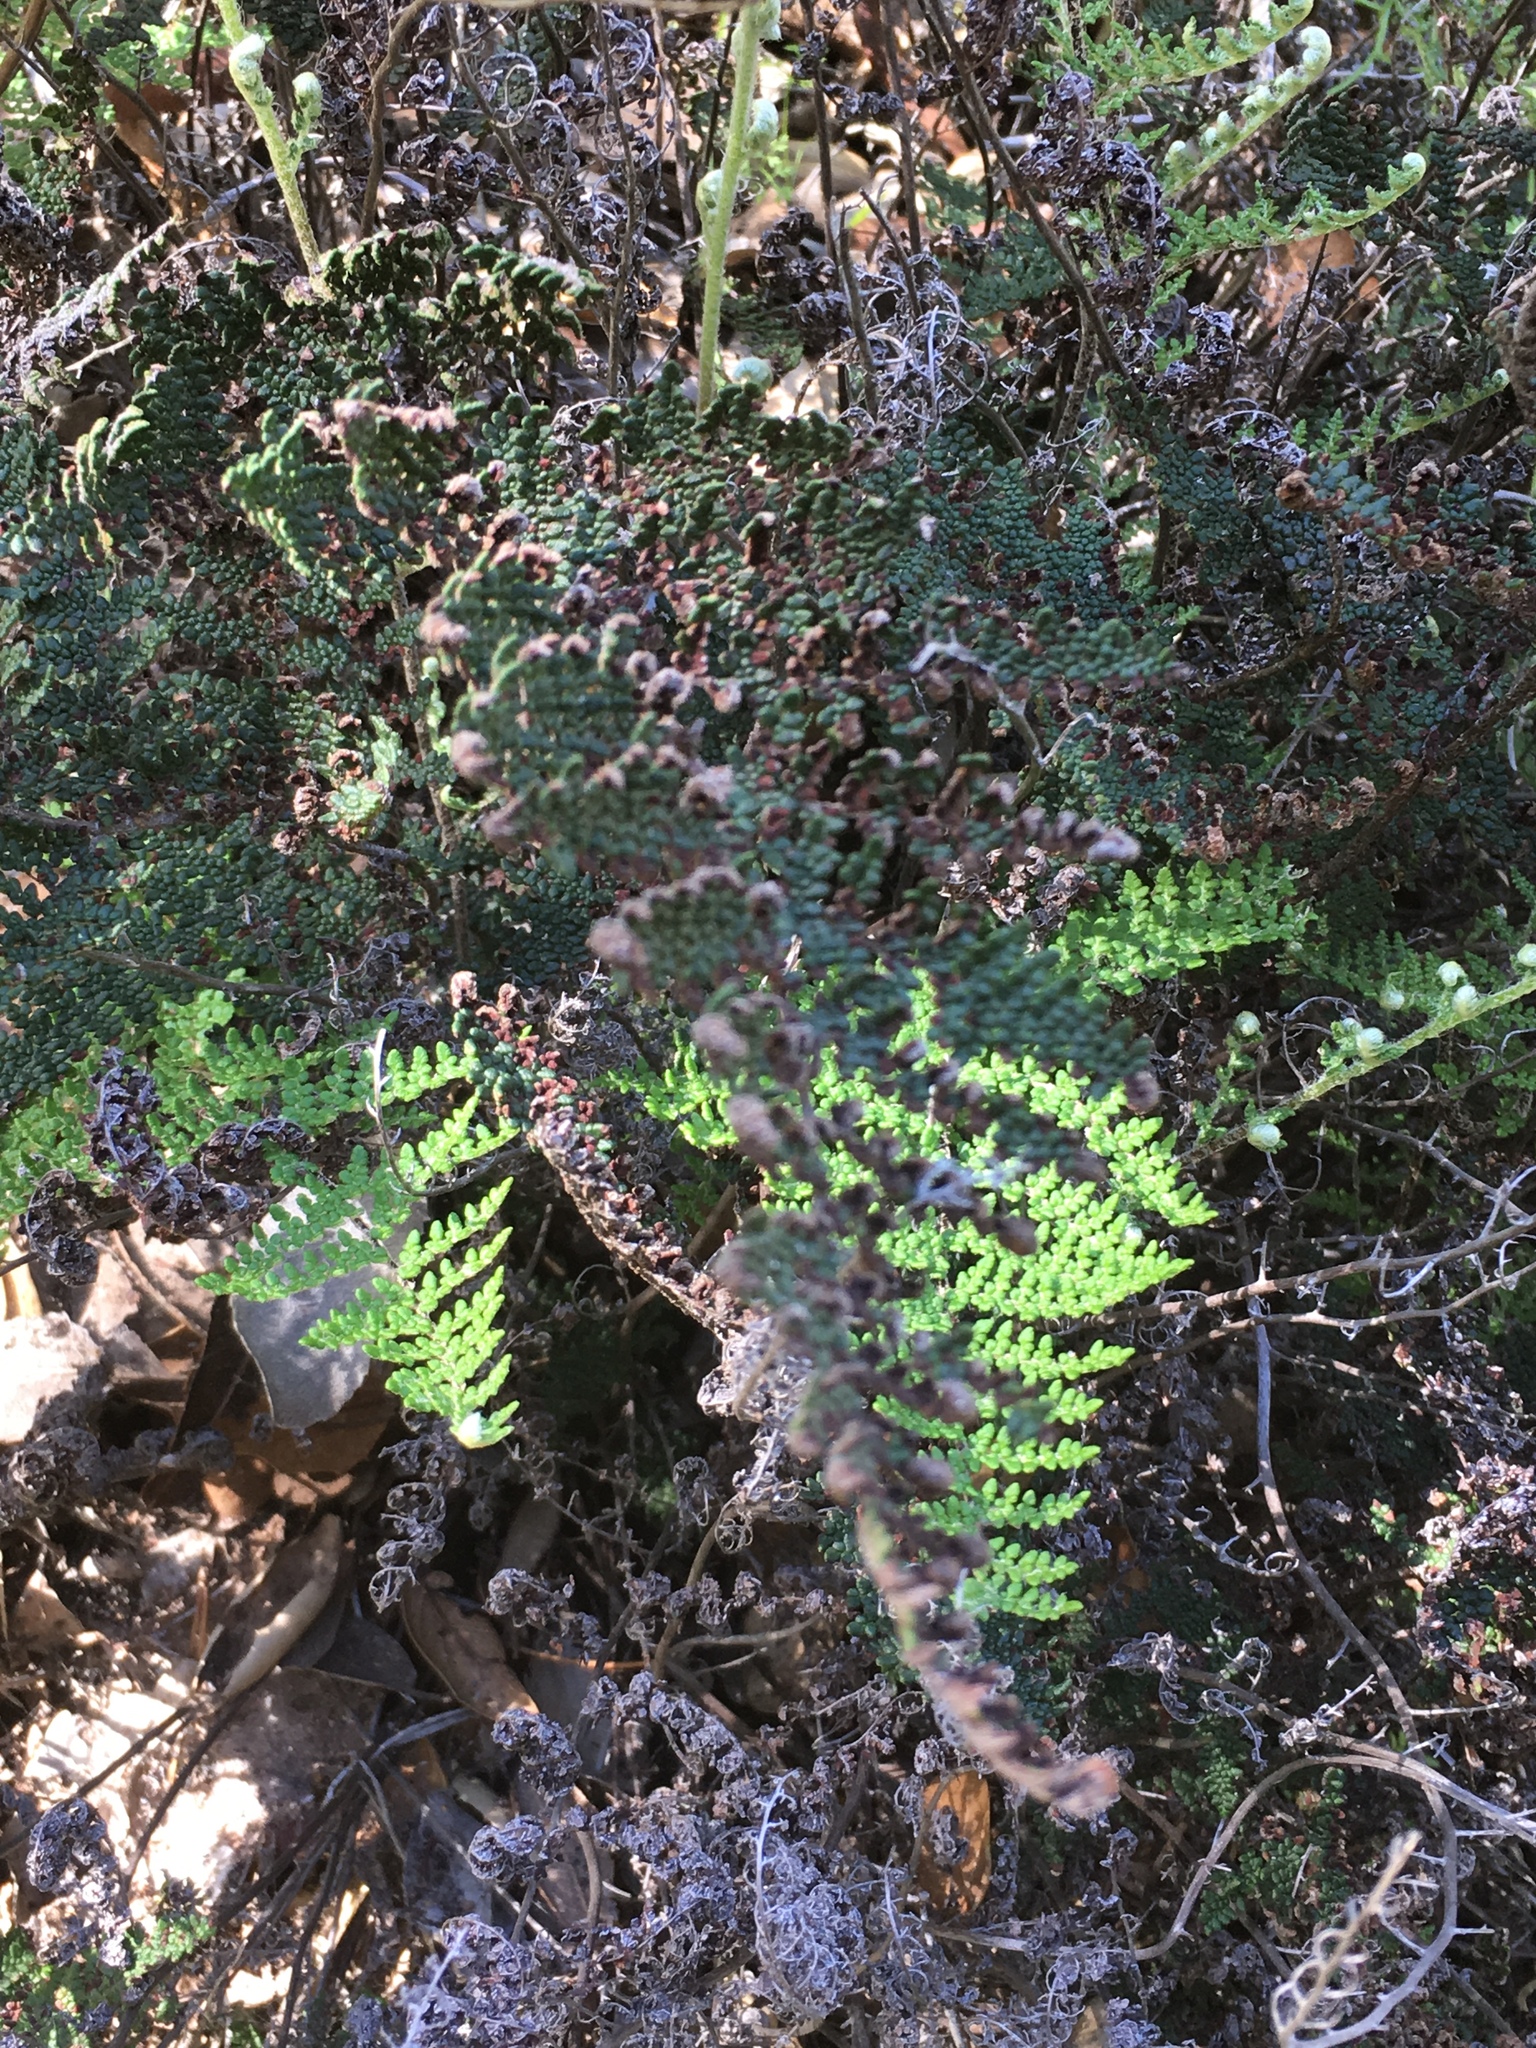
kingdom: Plantae
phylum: Tracheophyta
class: Polypodiopsida
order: Polypodiales
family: Pteridaceae
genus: Myriopteris
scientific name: Myriopteris clevelandii
